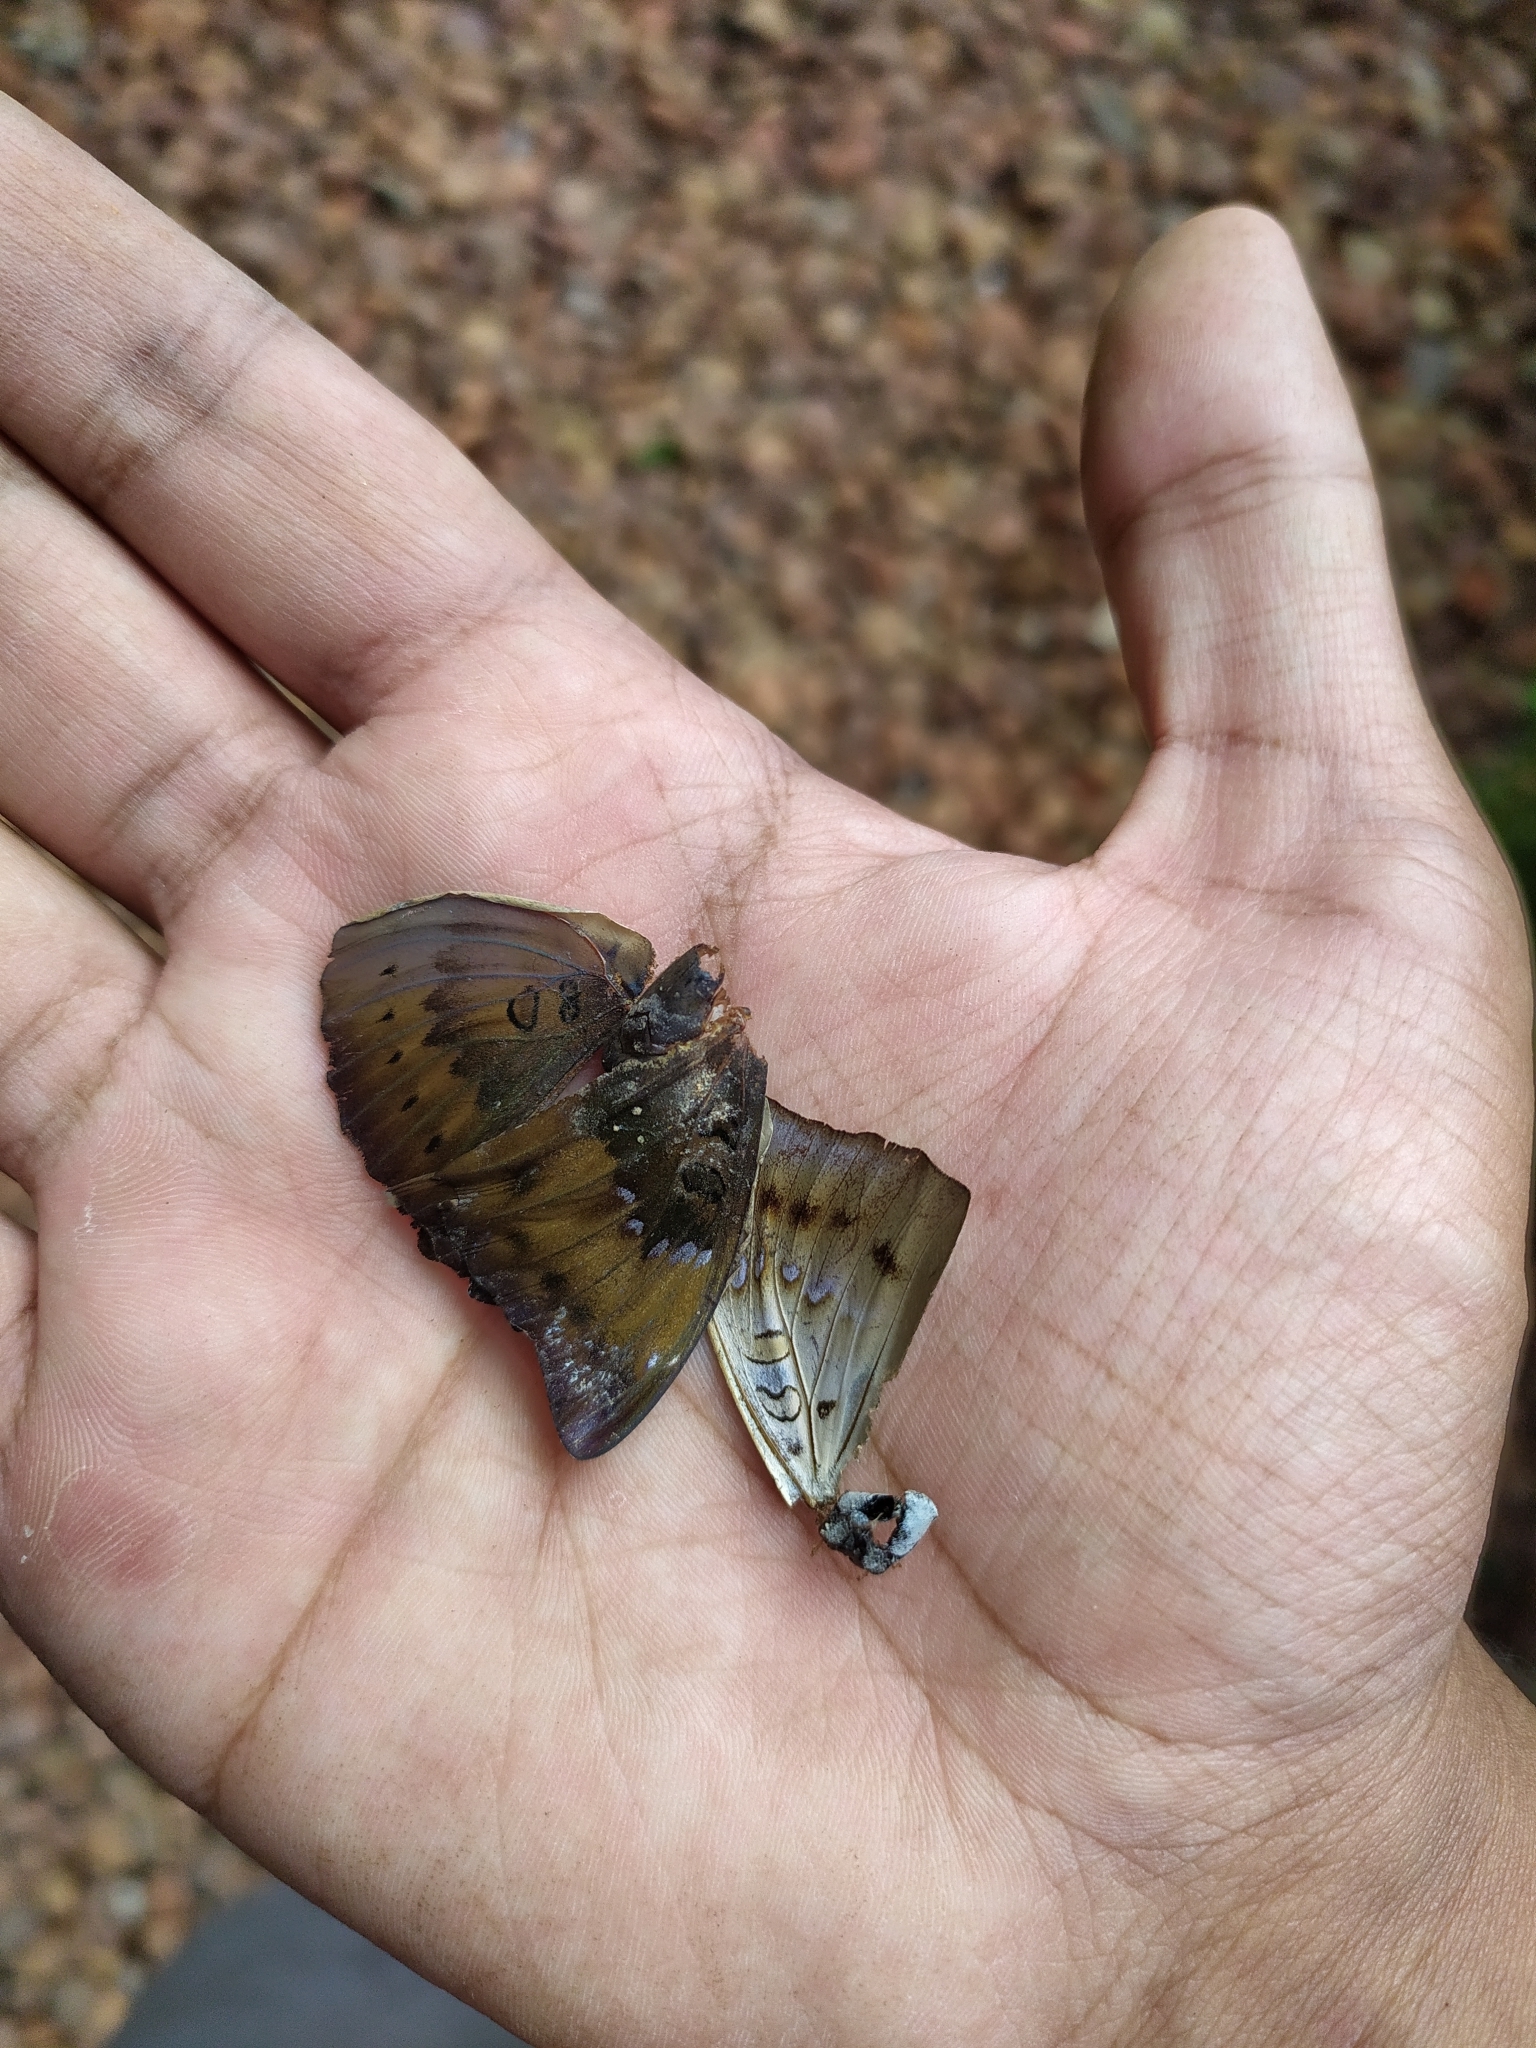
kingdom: Animalia
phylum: Arthropoda
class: Insecta
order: Lepidoptera
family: Nymphalidae
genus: Euthalia
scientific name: Euthalia aconthea
